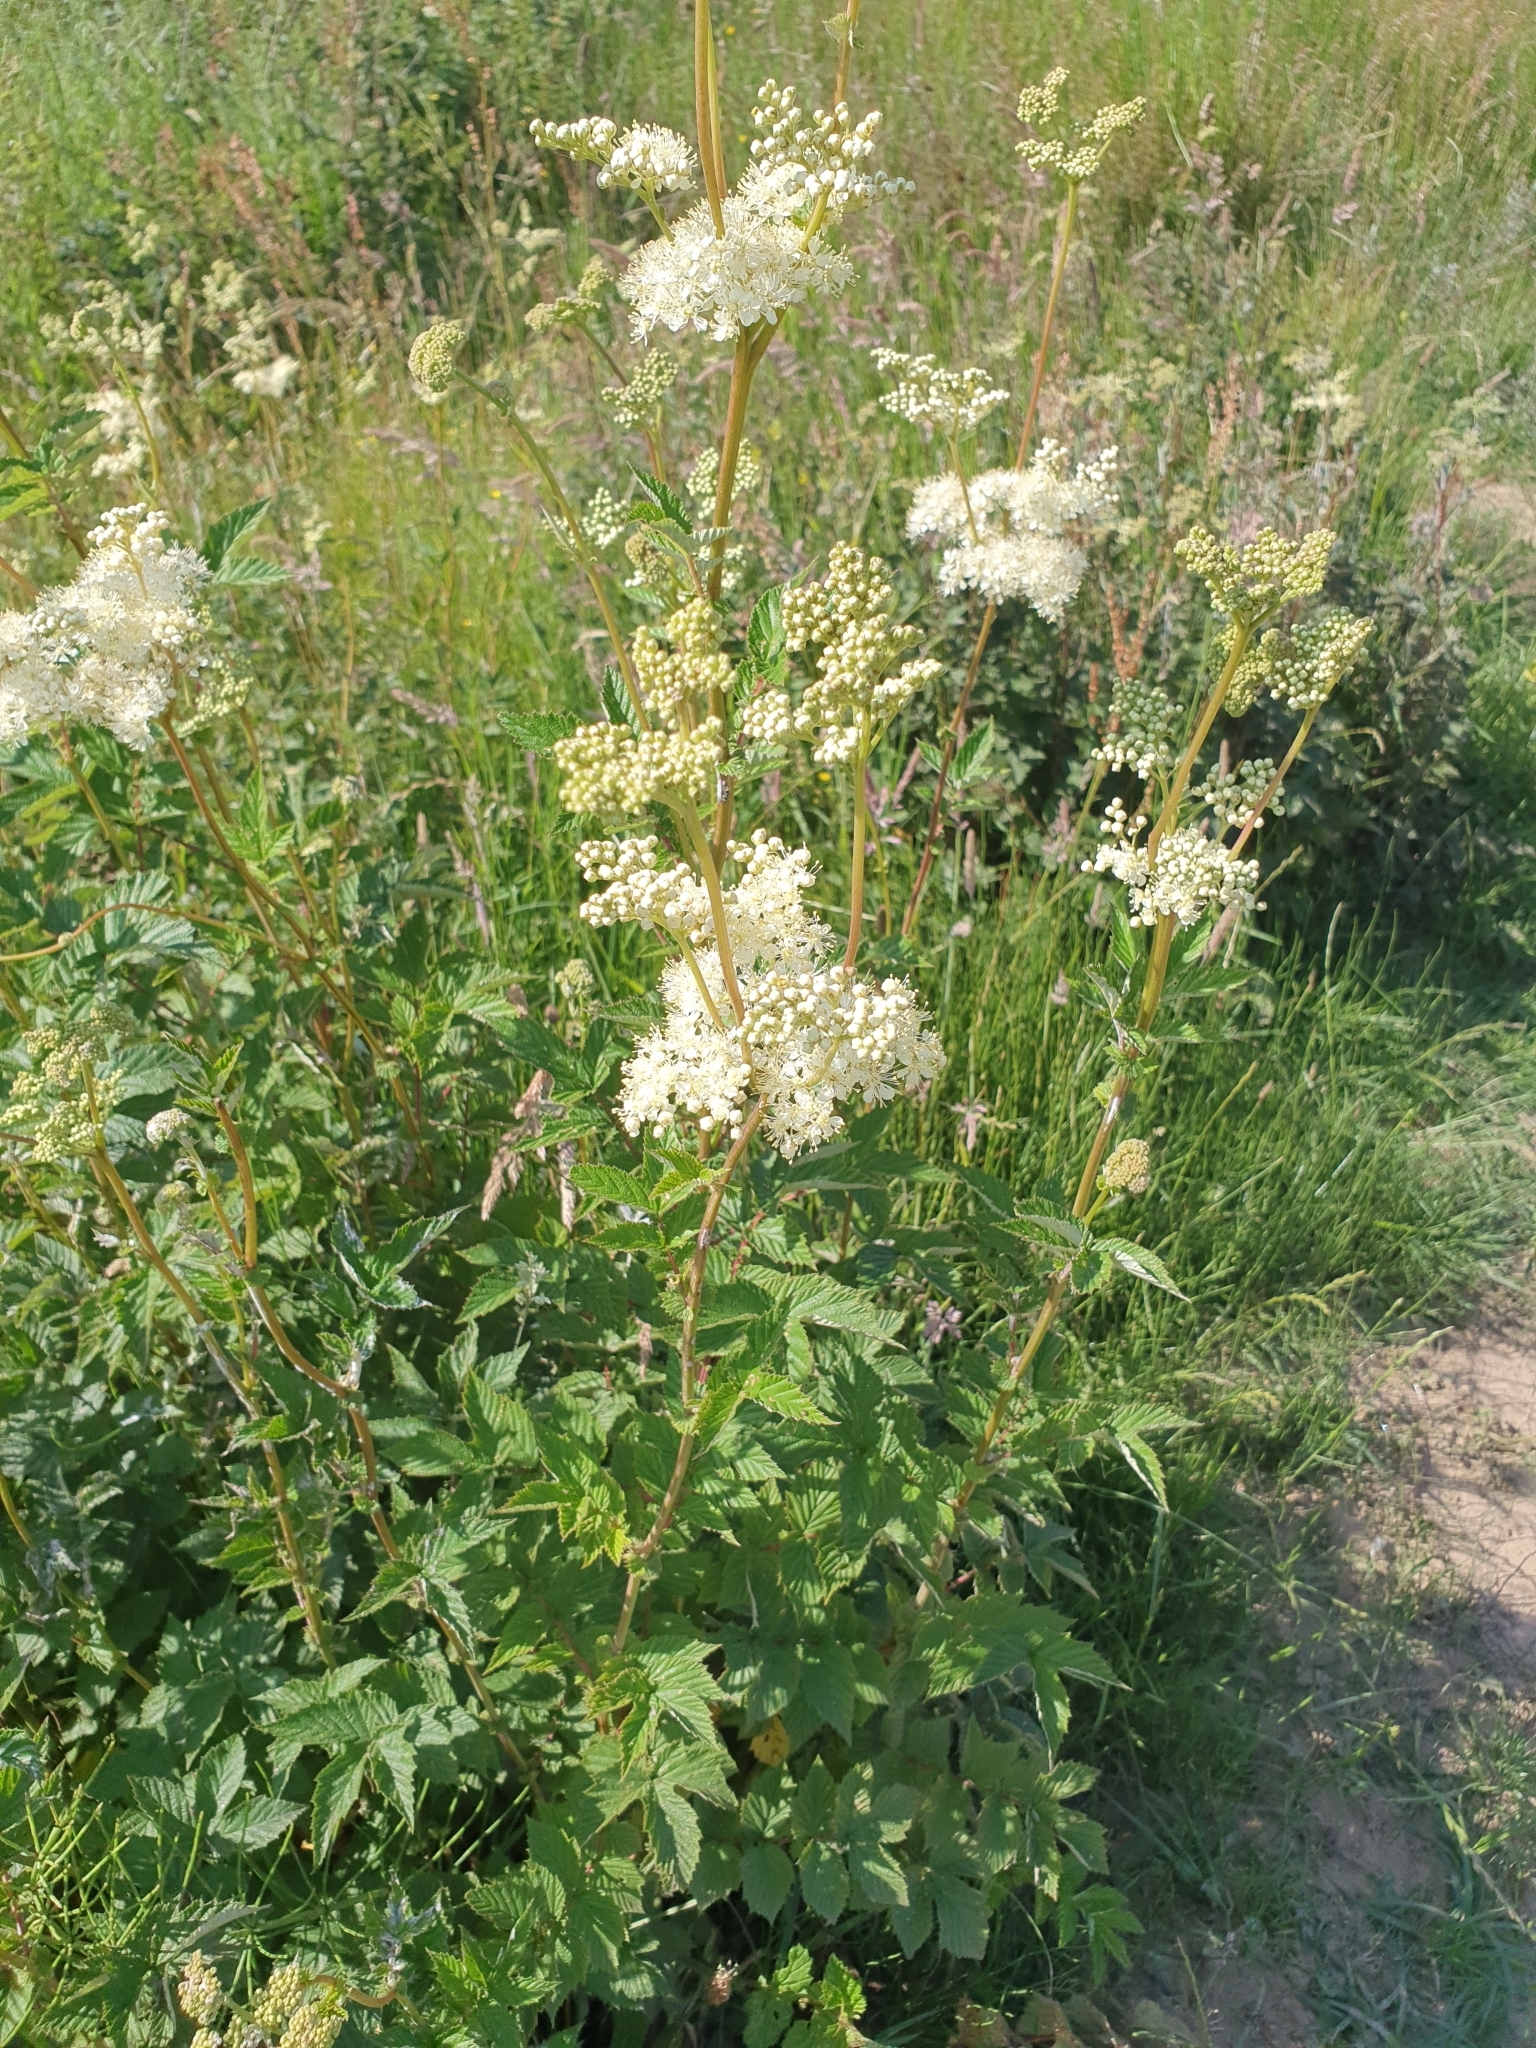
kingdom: Plantae
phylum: Tracheophyta
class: Magnoliopsida
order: Rosales
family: Rosaceae
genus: Filipendula
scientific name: Filipendula ulmaria
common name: Meadowsweet
